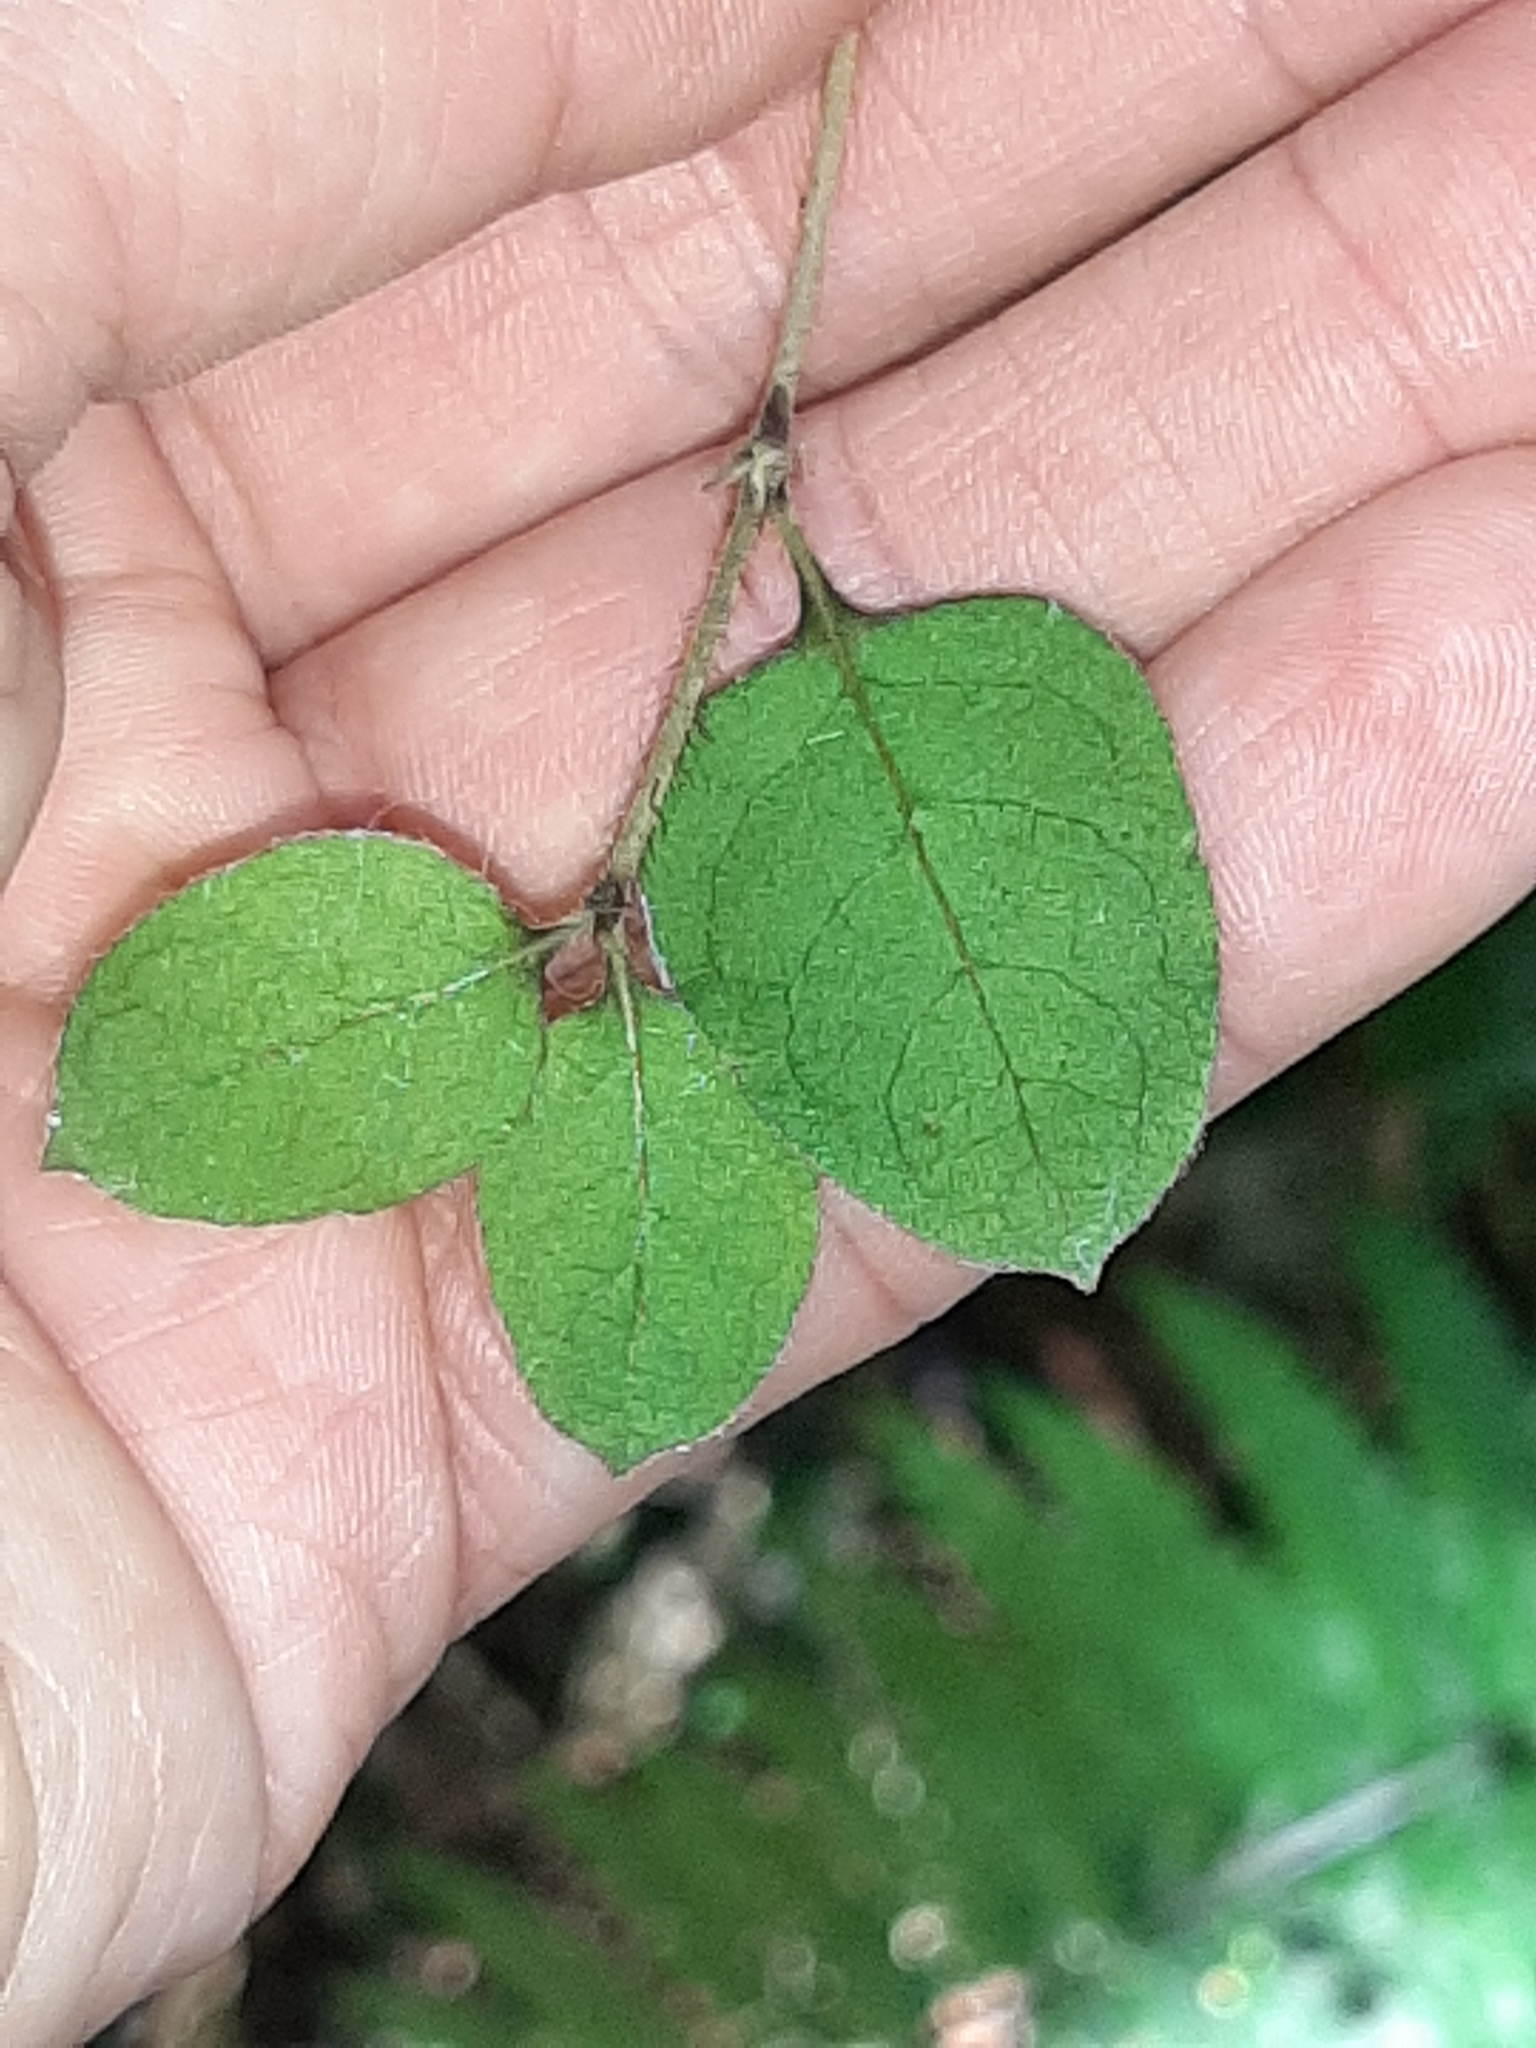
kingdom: Plantae
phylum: Tracheophyta
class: Magnoliopsida
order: Gentianales
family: Rubiaceae
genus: Coprosma
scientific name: Coprosma rotundifolia
